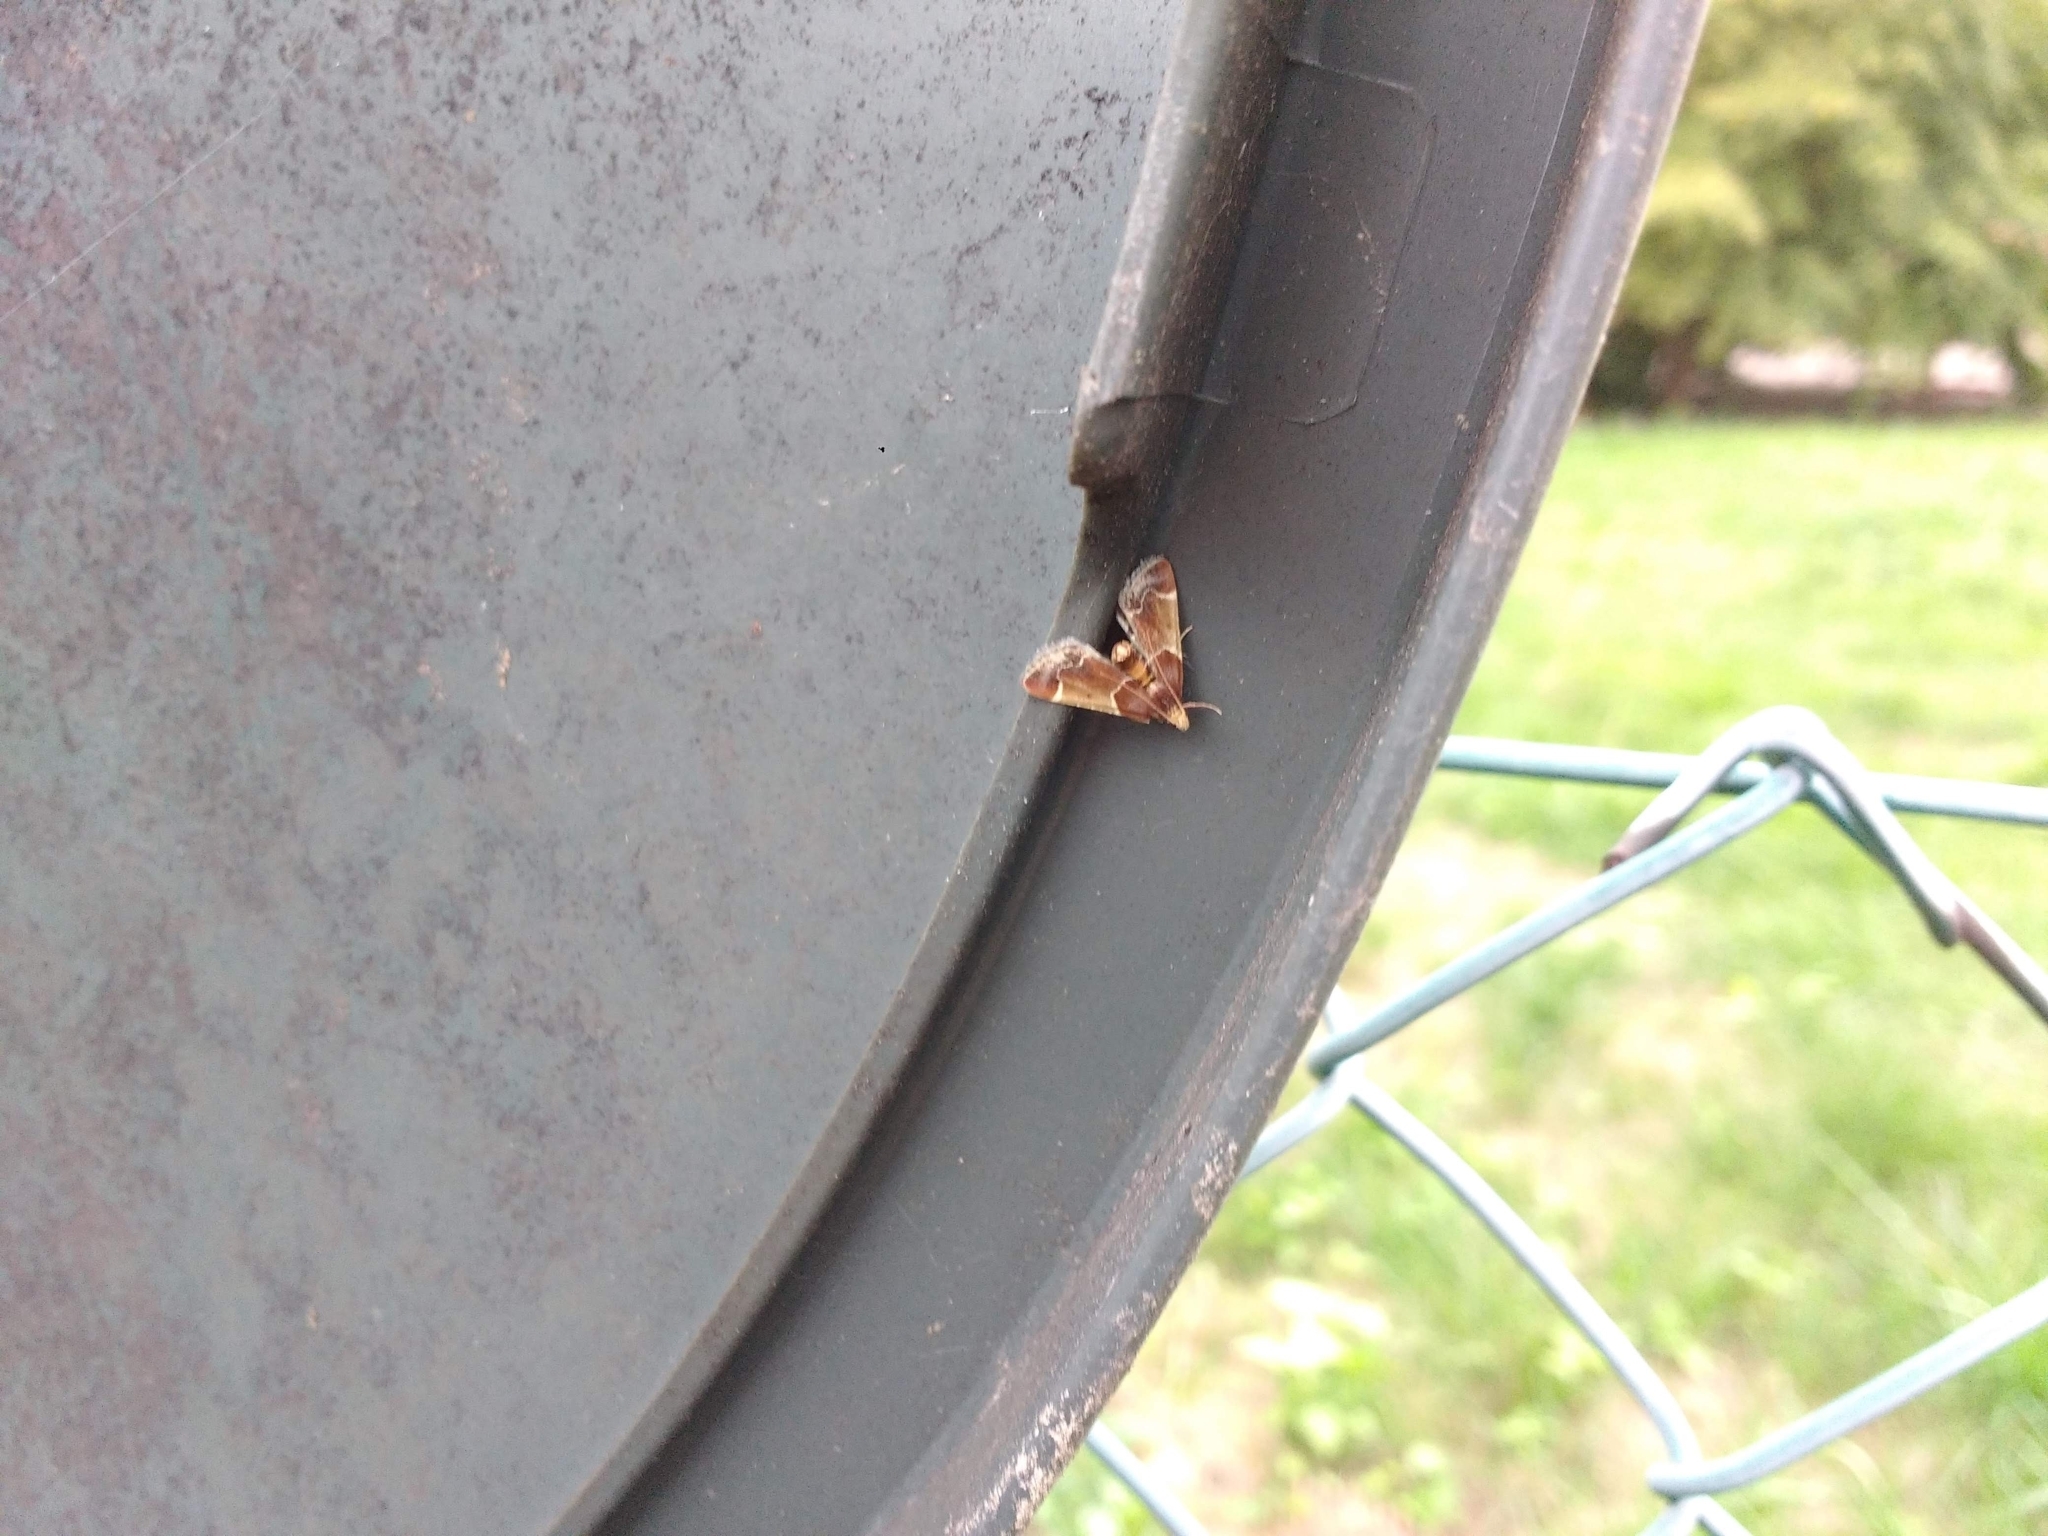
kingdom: Animalia
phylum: Arthropoda
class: Insecta
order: Lepidoptera
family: Pyralidae
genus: Pyralis
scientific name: Pyralis farinalis
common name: Meal moth
